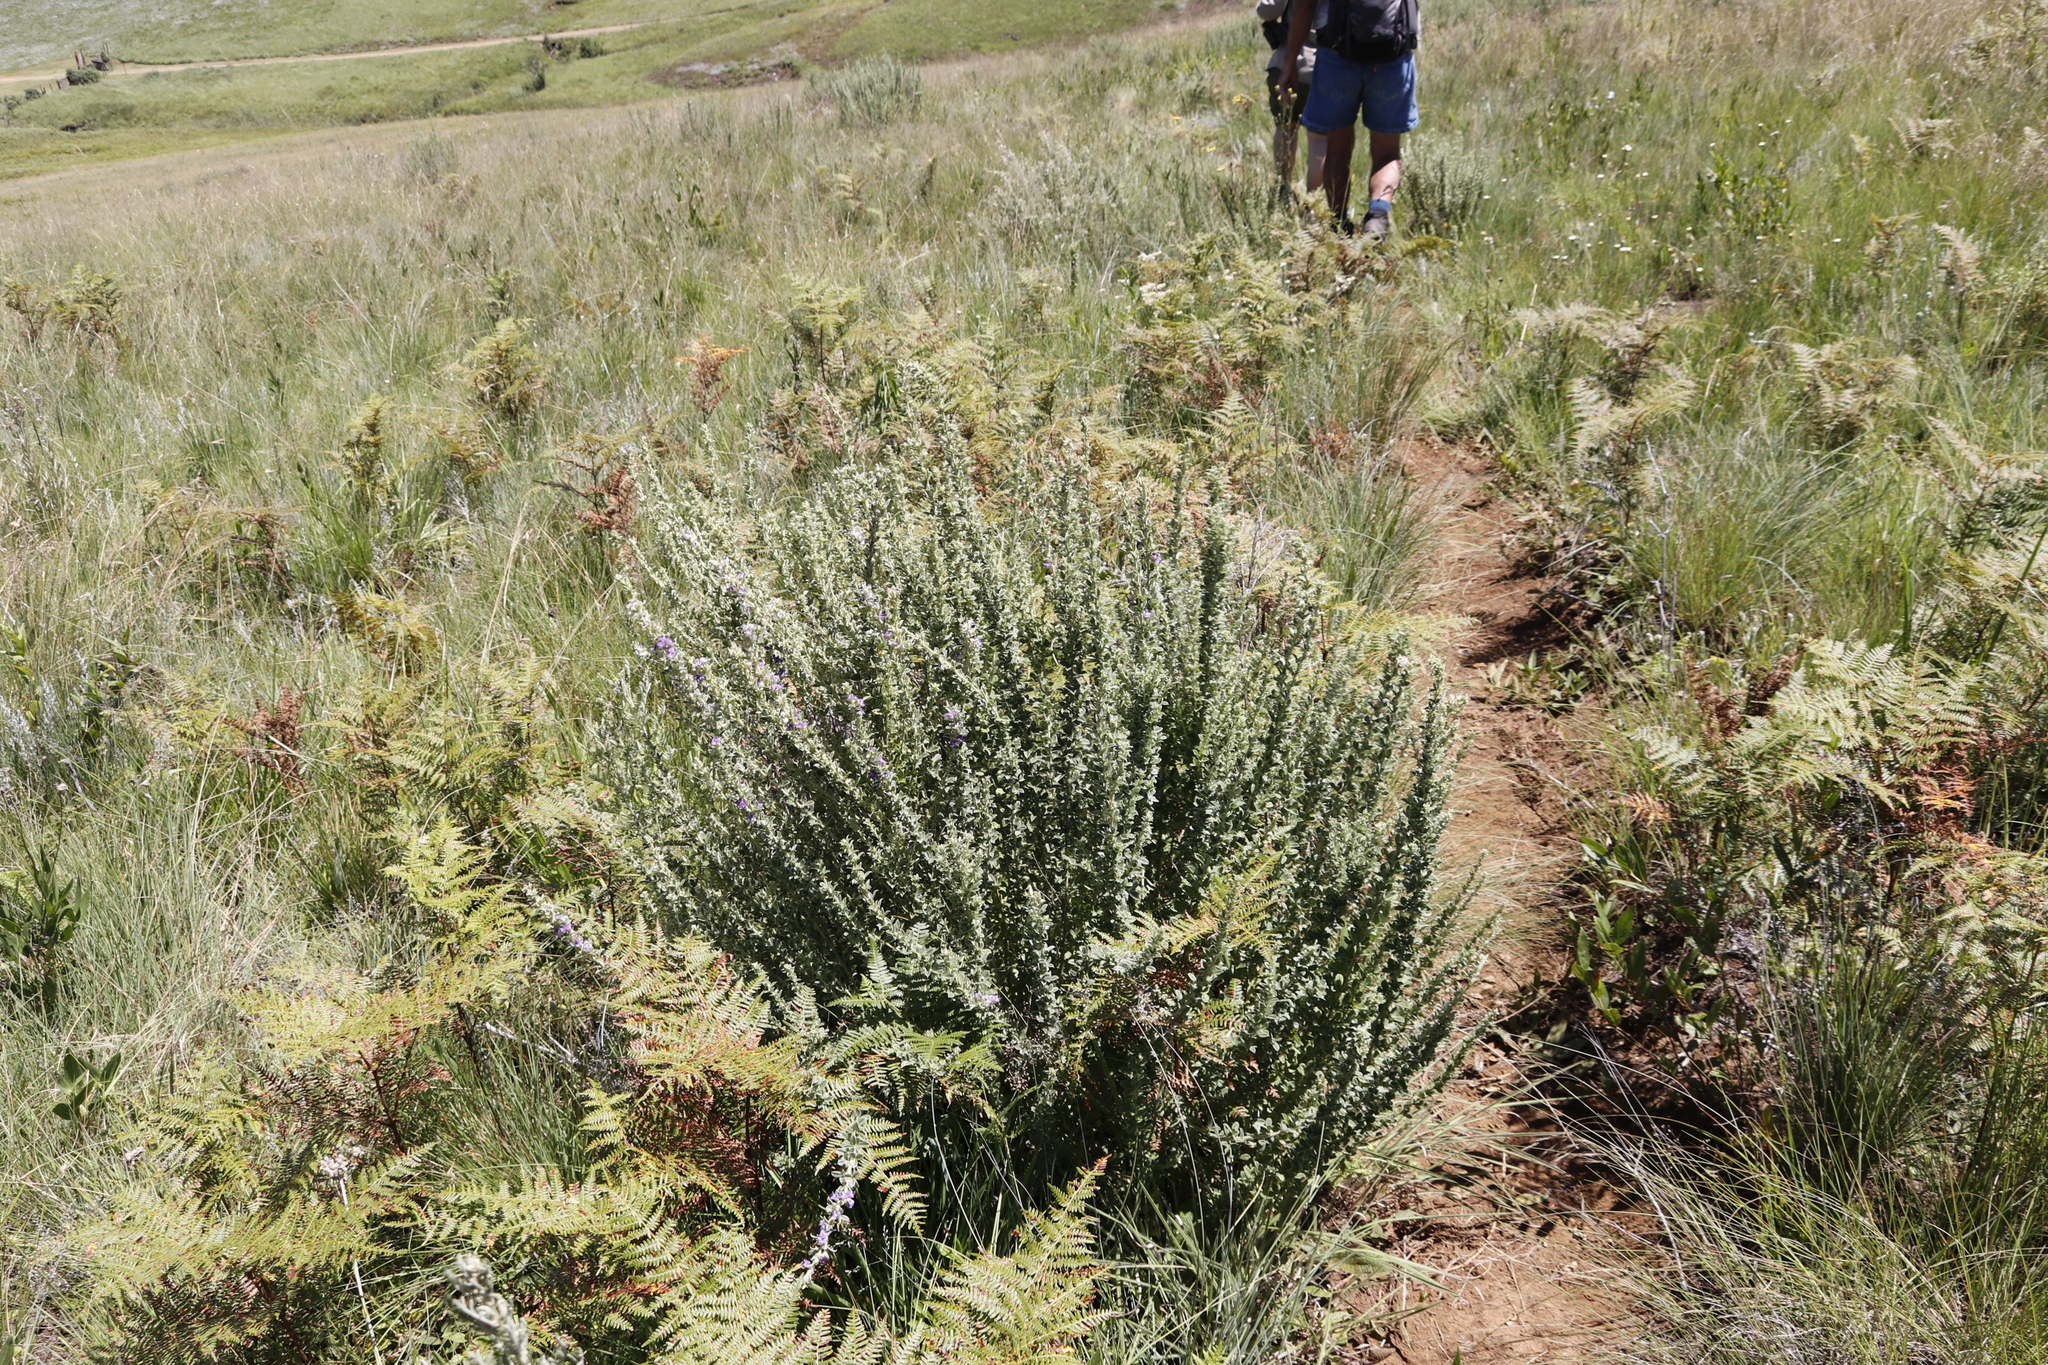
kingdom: Plantae
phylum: Tracheophyta
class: Magnoliopsida
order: Fabales
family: Fabaceae
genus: Lotononis
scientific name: Lotononis lotononoides
